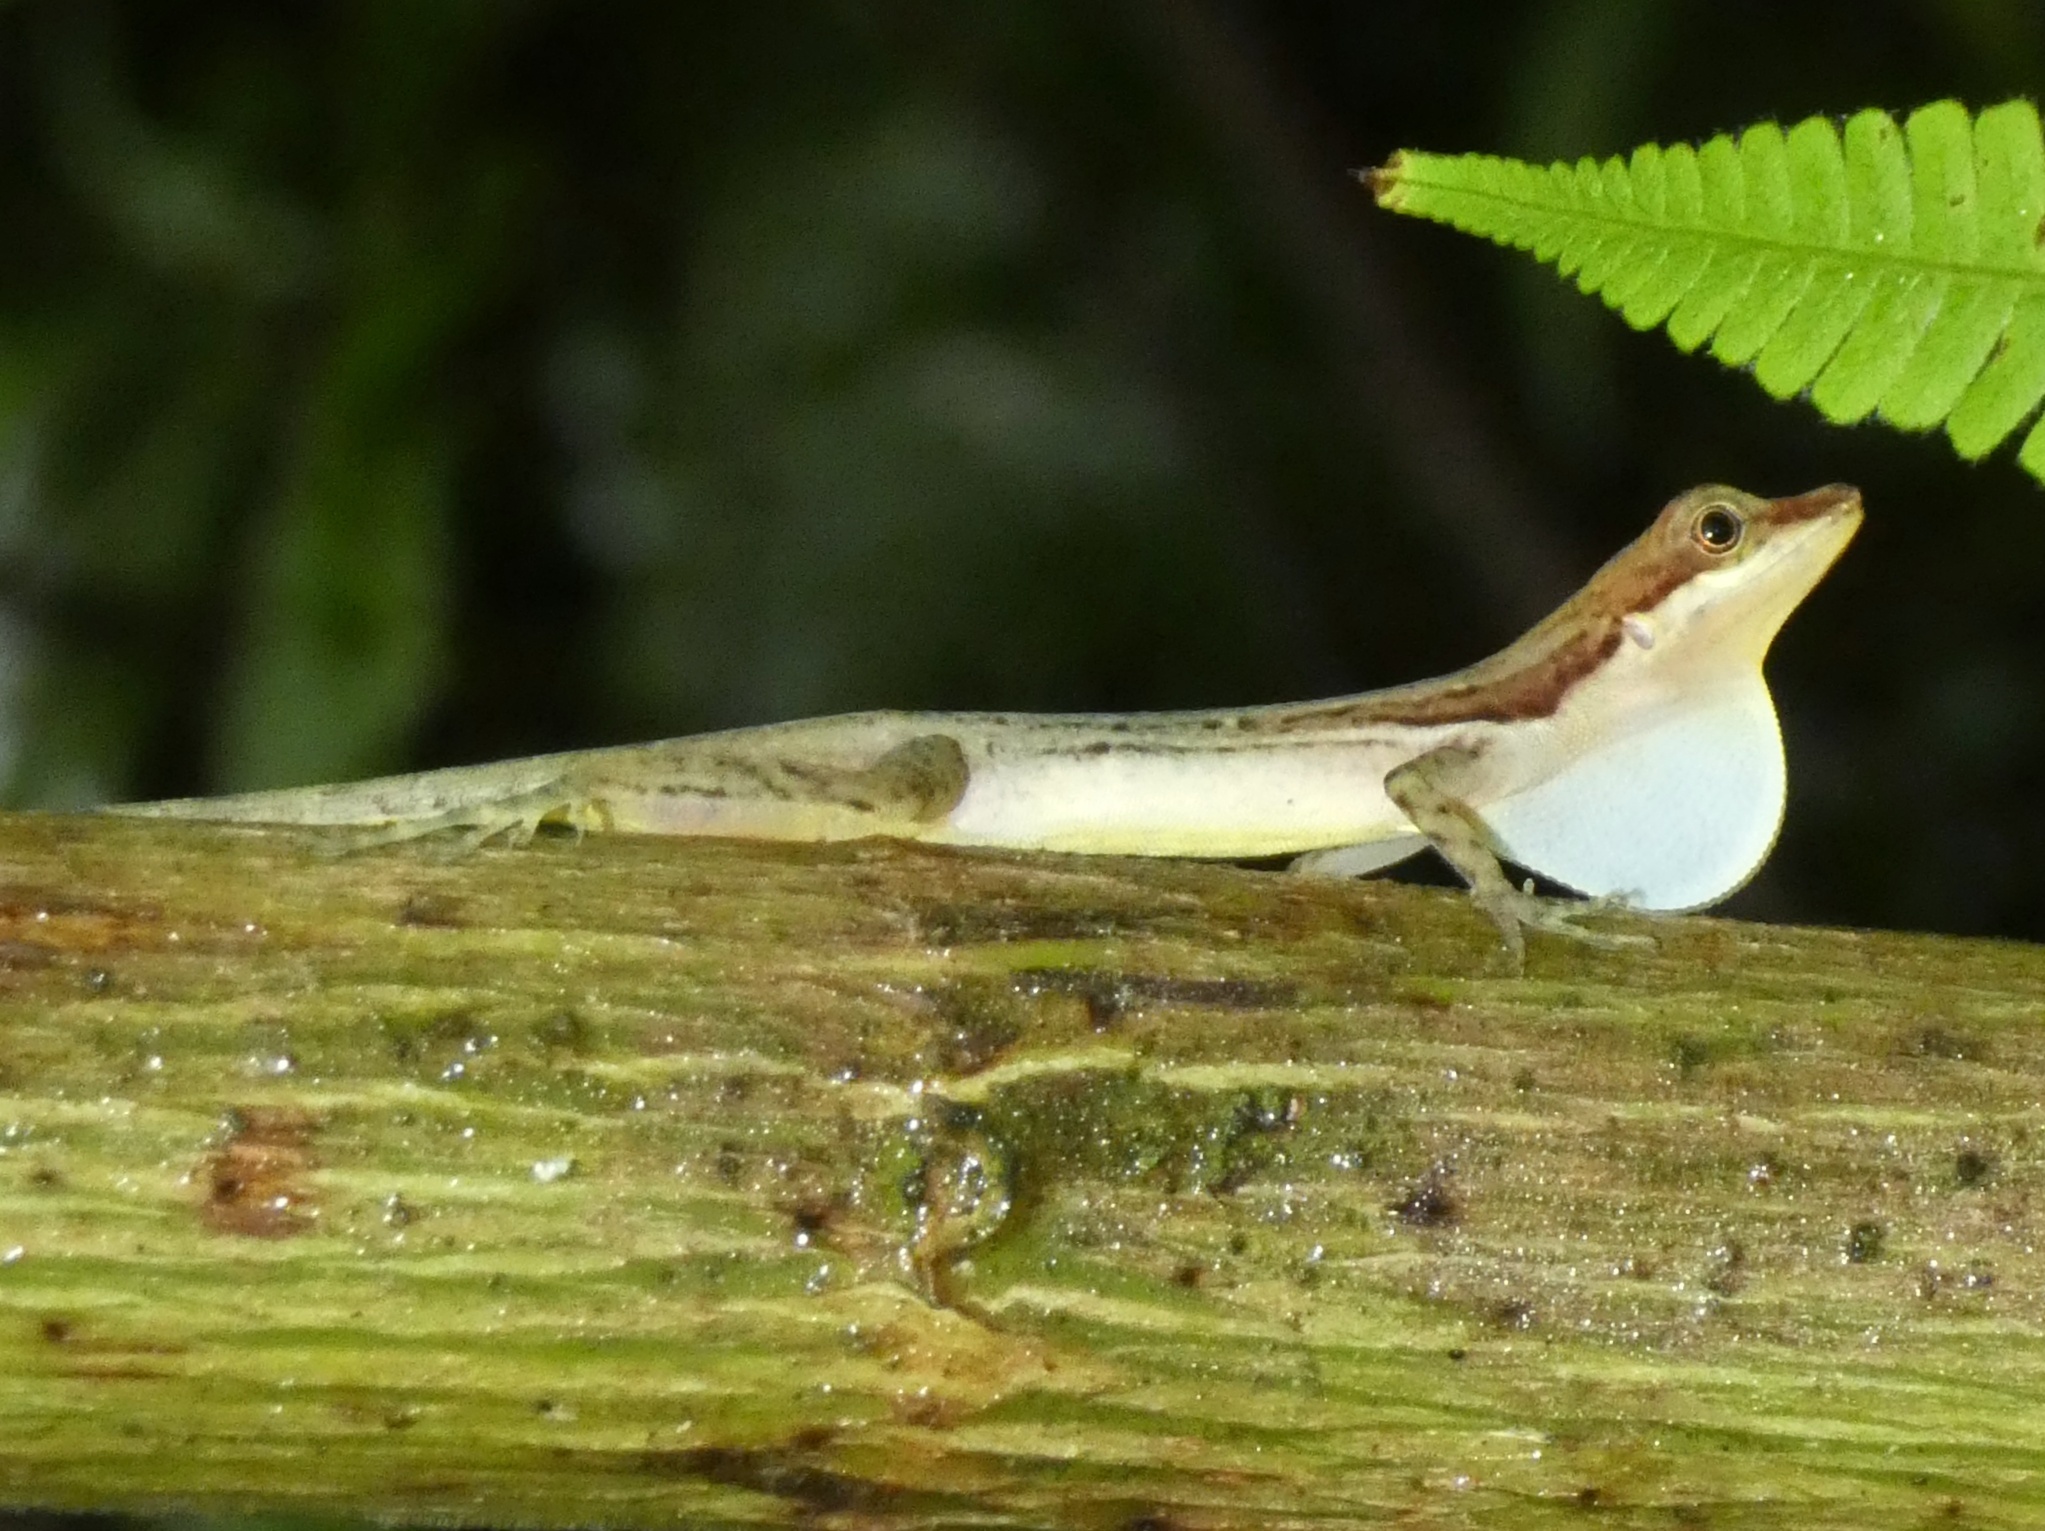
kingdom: Animalia
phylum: Chordata
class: Squamata
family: Dactyloidae
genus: Anolis
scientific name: Anolis limifrons
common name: Border anole
